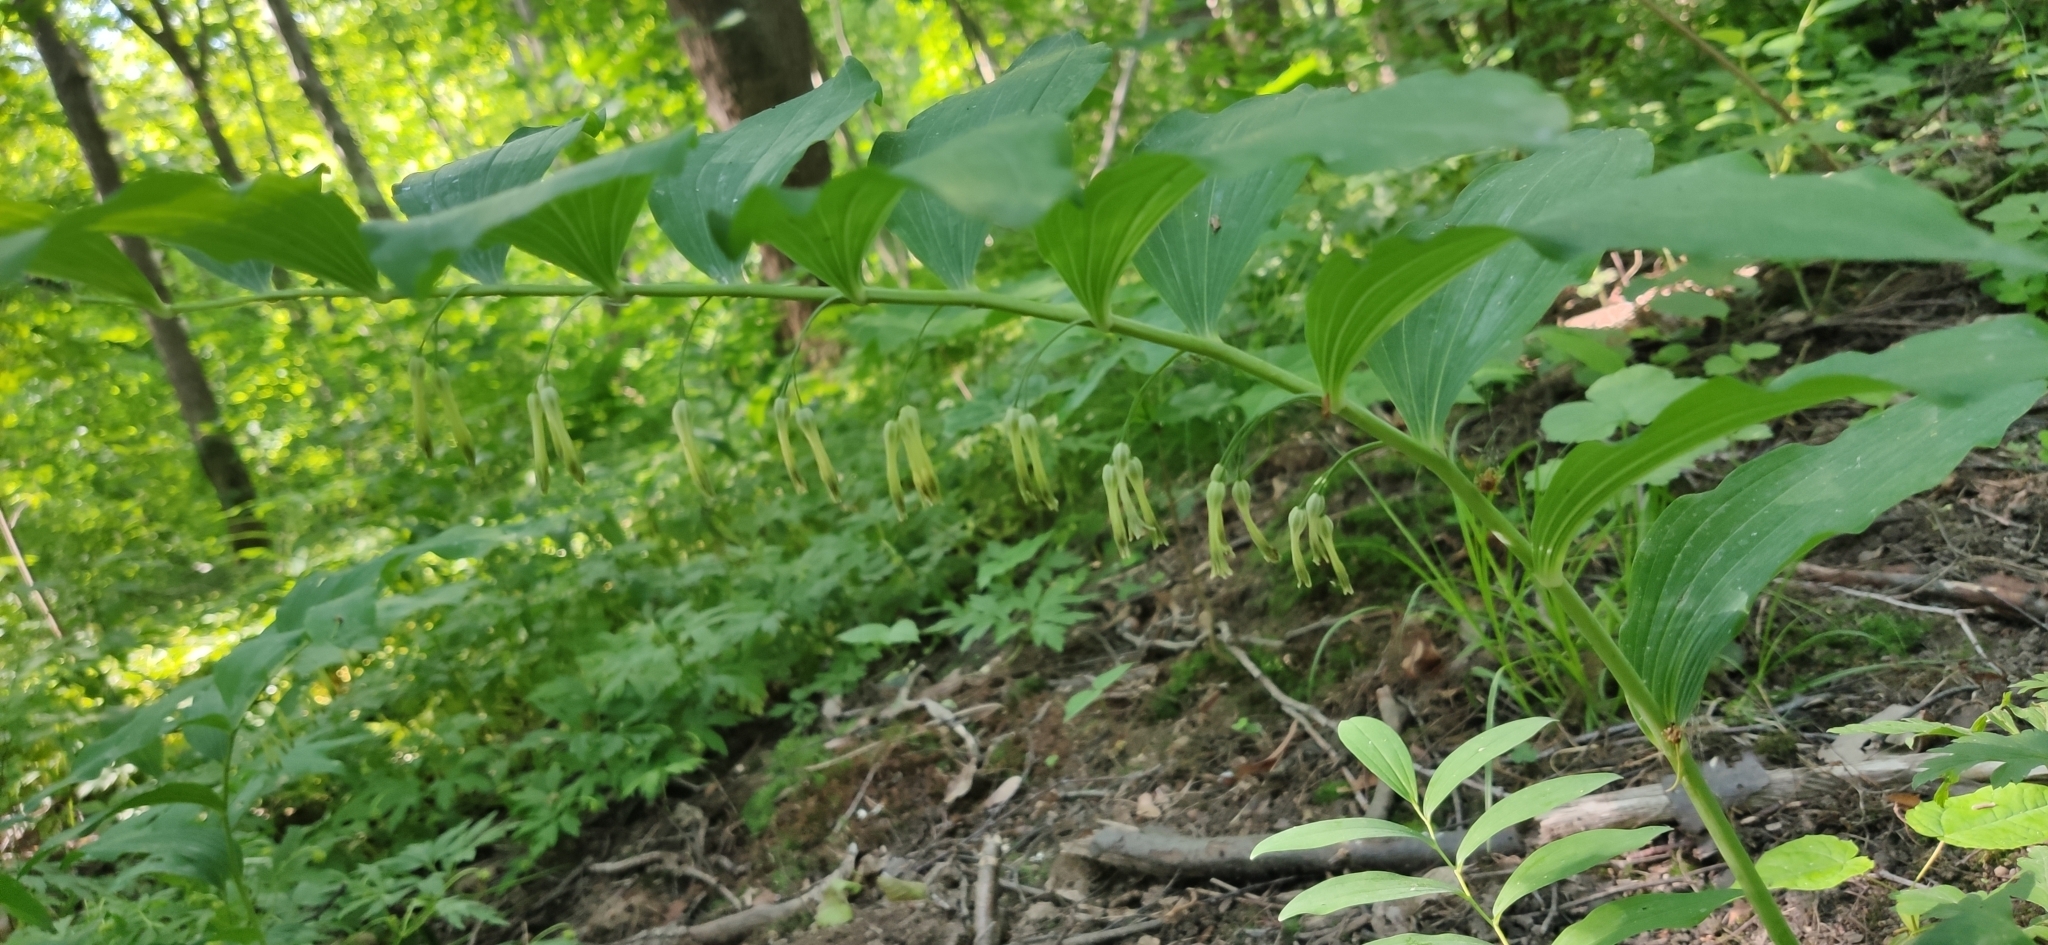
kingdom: Plantae
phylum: Tracheophyta
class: Liliopsida
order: Asparagales
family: Asparagaceae
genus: Polygonatum
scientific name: Polygonatum multiflorum
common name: Solomon's-seal
